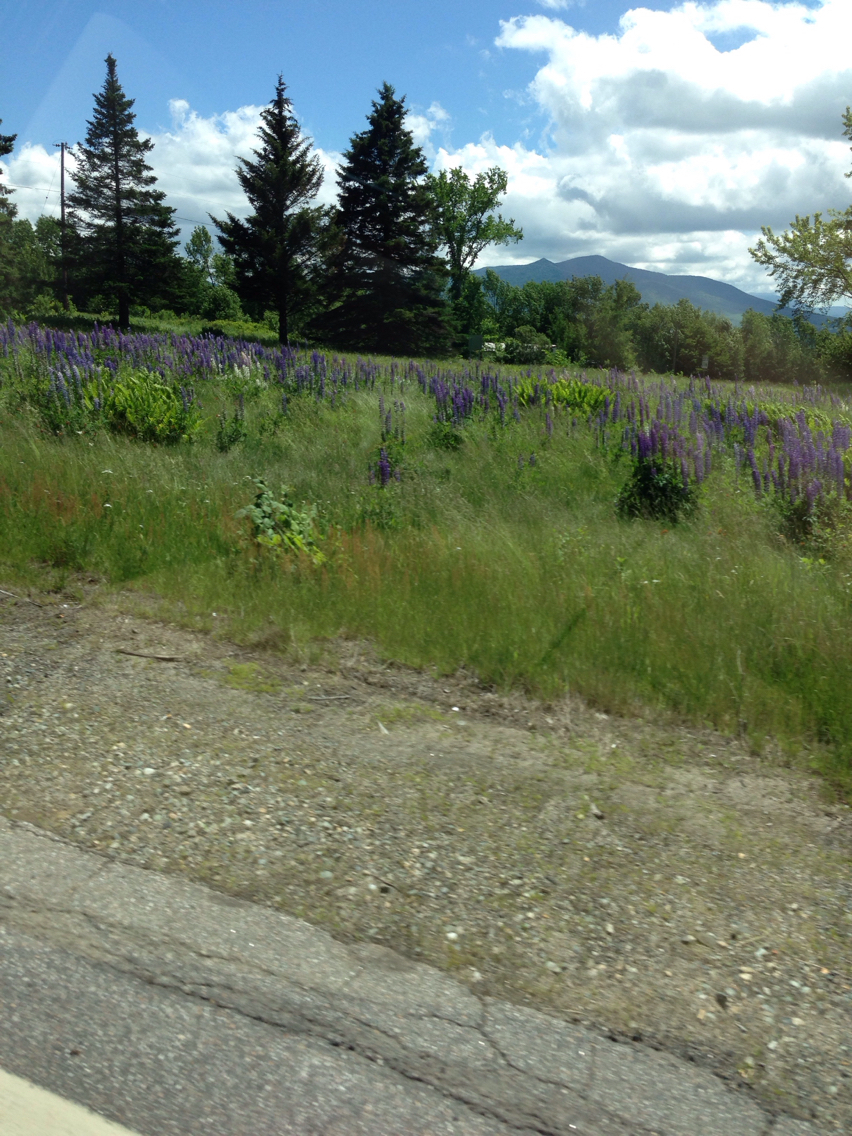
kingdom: Plantae
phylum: Tracheophyta
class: Magnoliopsida
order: Fabales
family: Fabaceae
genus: Lupinus
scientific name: Lupinus polyphyllus
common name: Garden lupin
